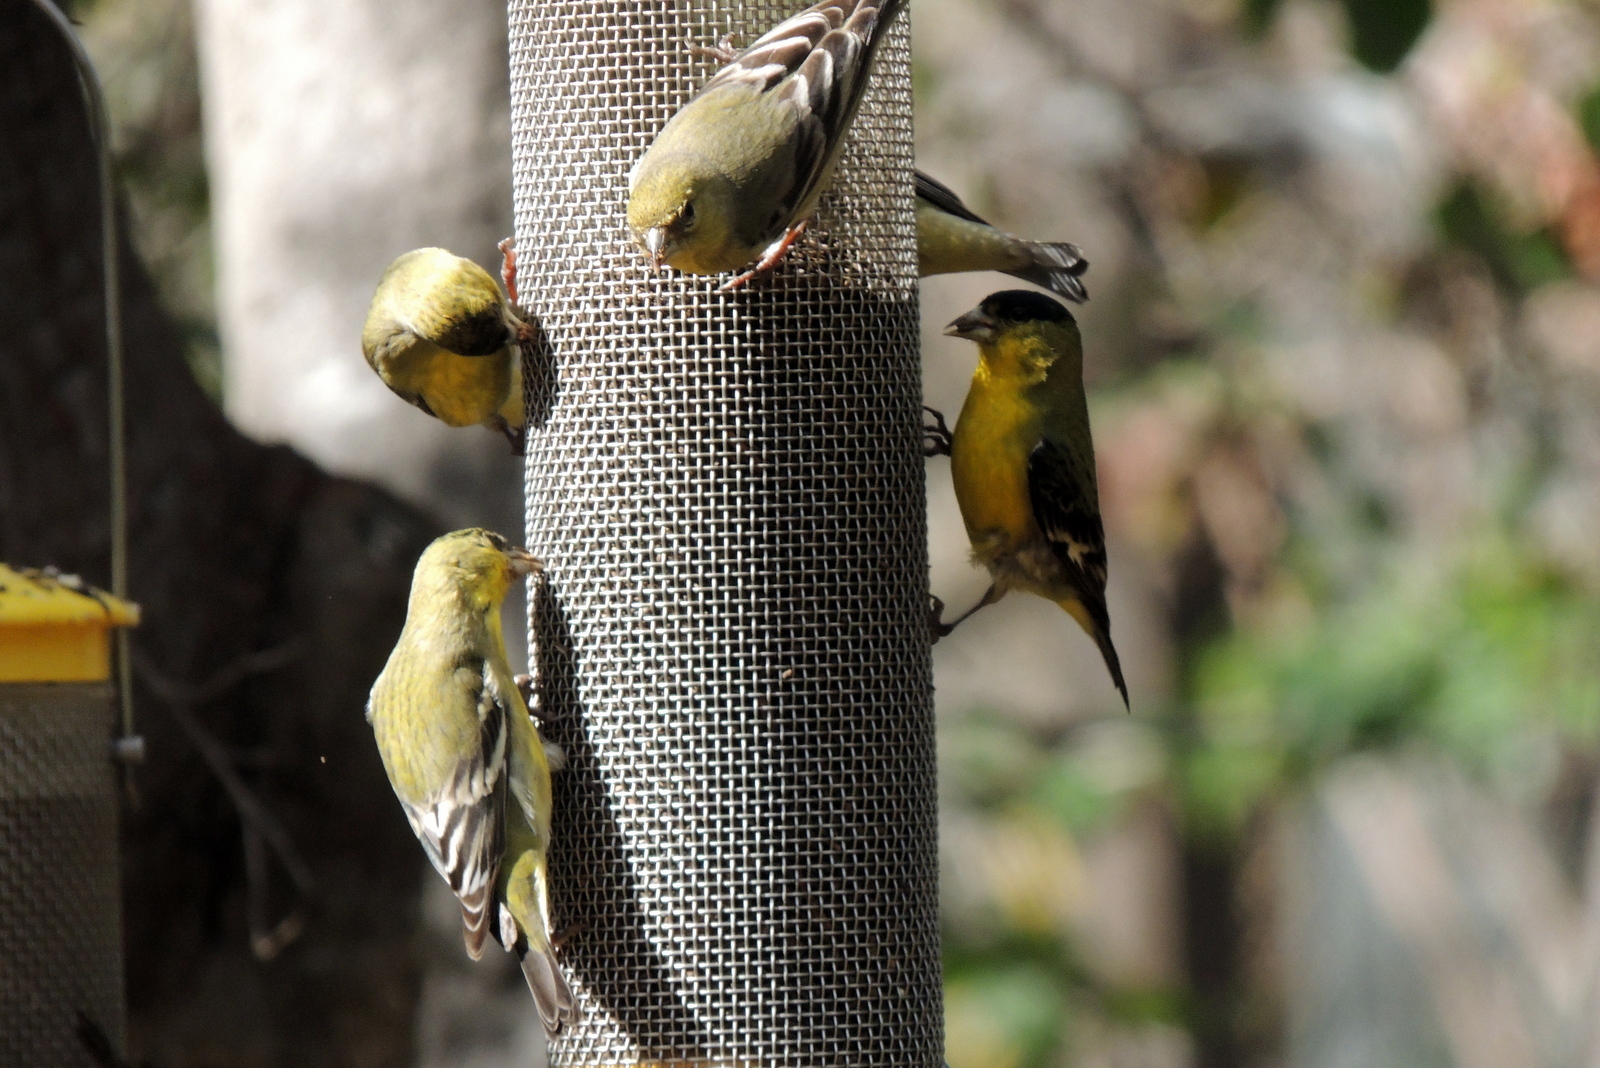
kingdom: Animalia
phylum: Chordata
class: Aves
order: Passeriformes
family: Fringillidae
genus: Spinus
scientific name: Spinus psaltria
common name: Lesser goldfinch
